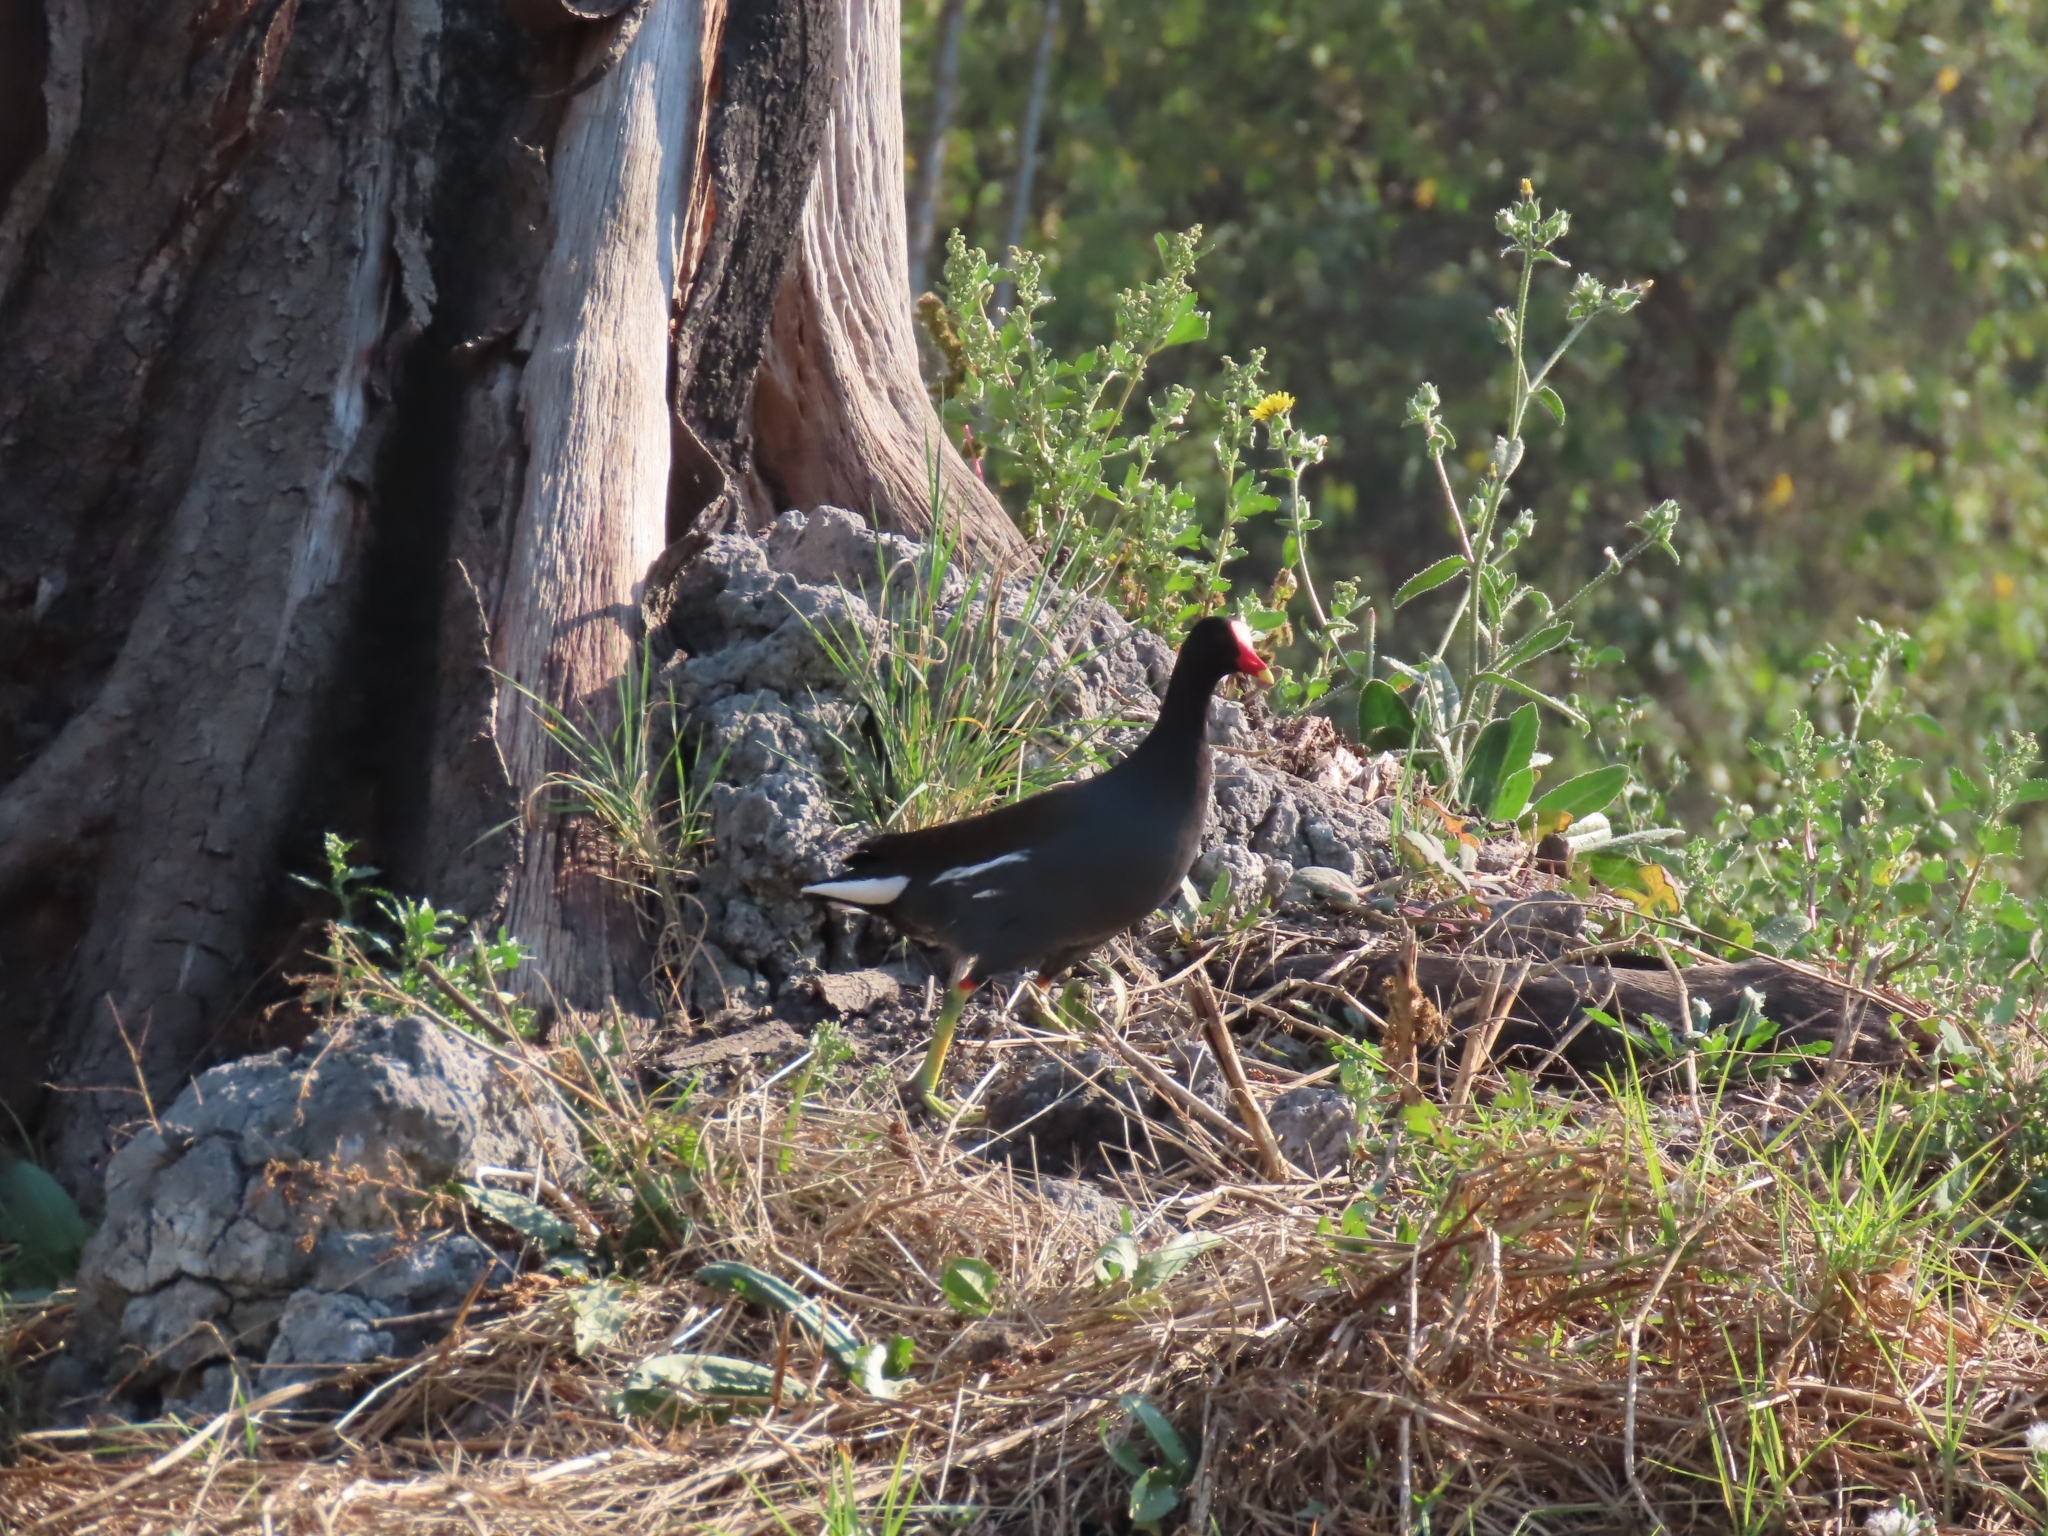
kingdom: Animalia
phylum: Chordata
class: Aves
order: Gruiformes
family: Rallidae
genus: Gallinula
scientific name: Gallinula chloropus
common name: Common moorhen
